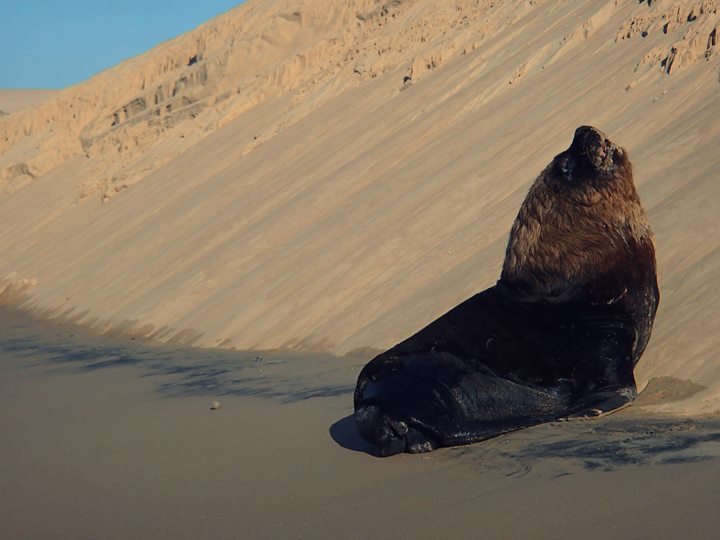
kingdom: Animalia
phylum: Chordata
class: Mammalia
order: Carnivora
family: Otariidae
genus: Otaria
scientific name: Otaria byronia
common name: South american sea lion
